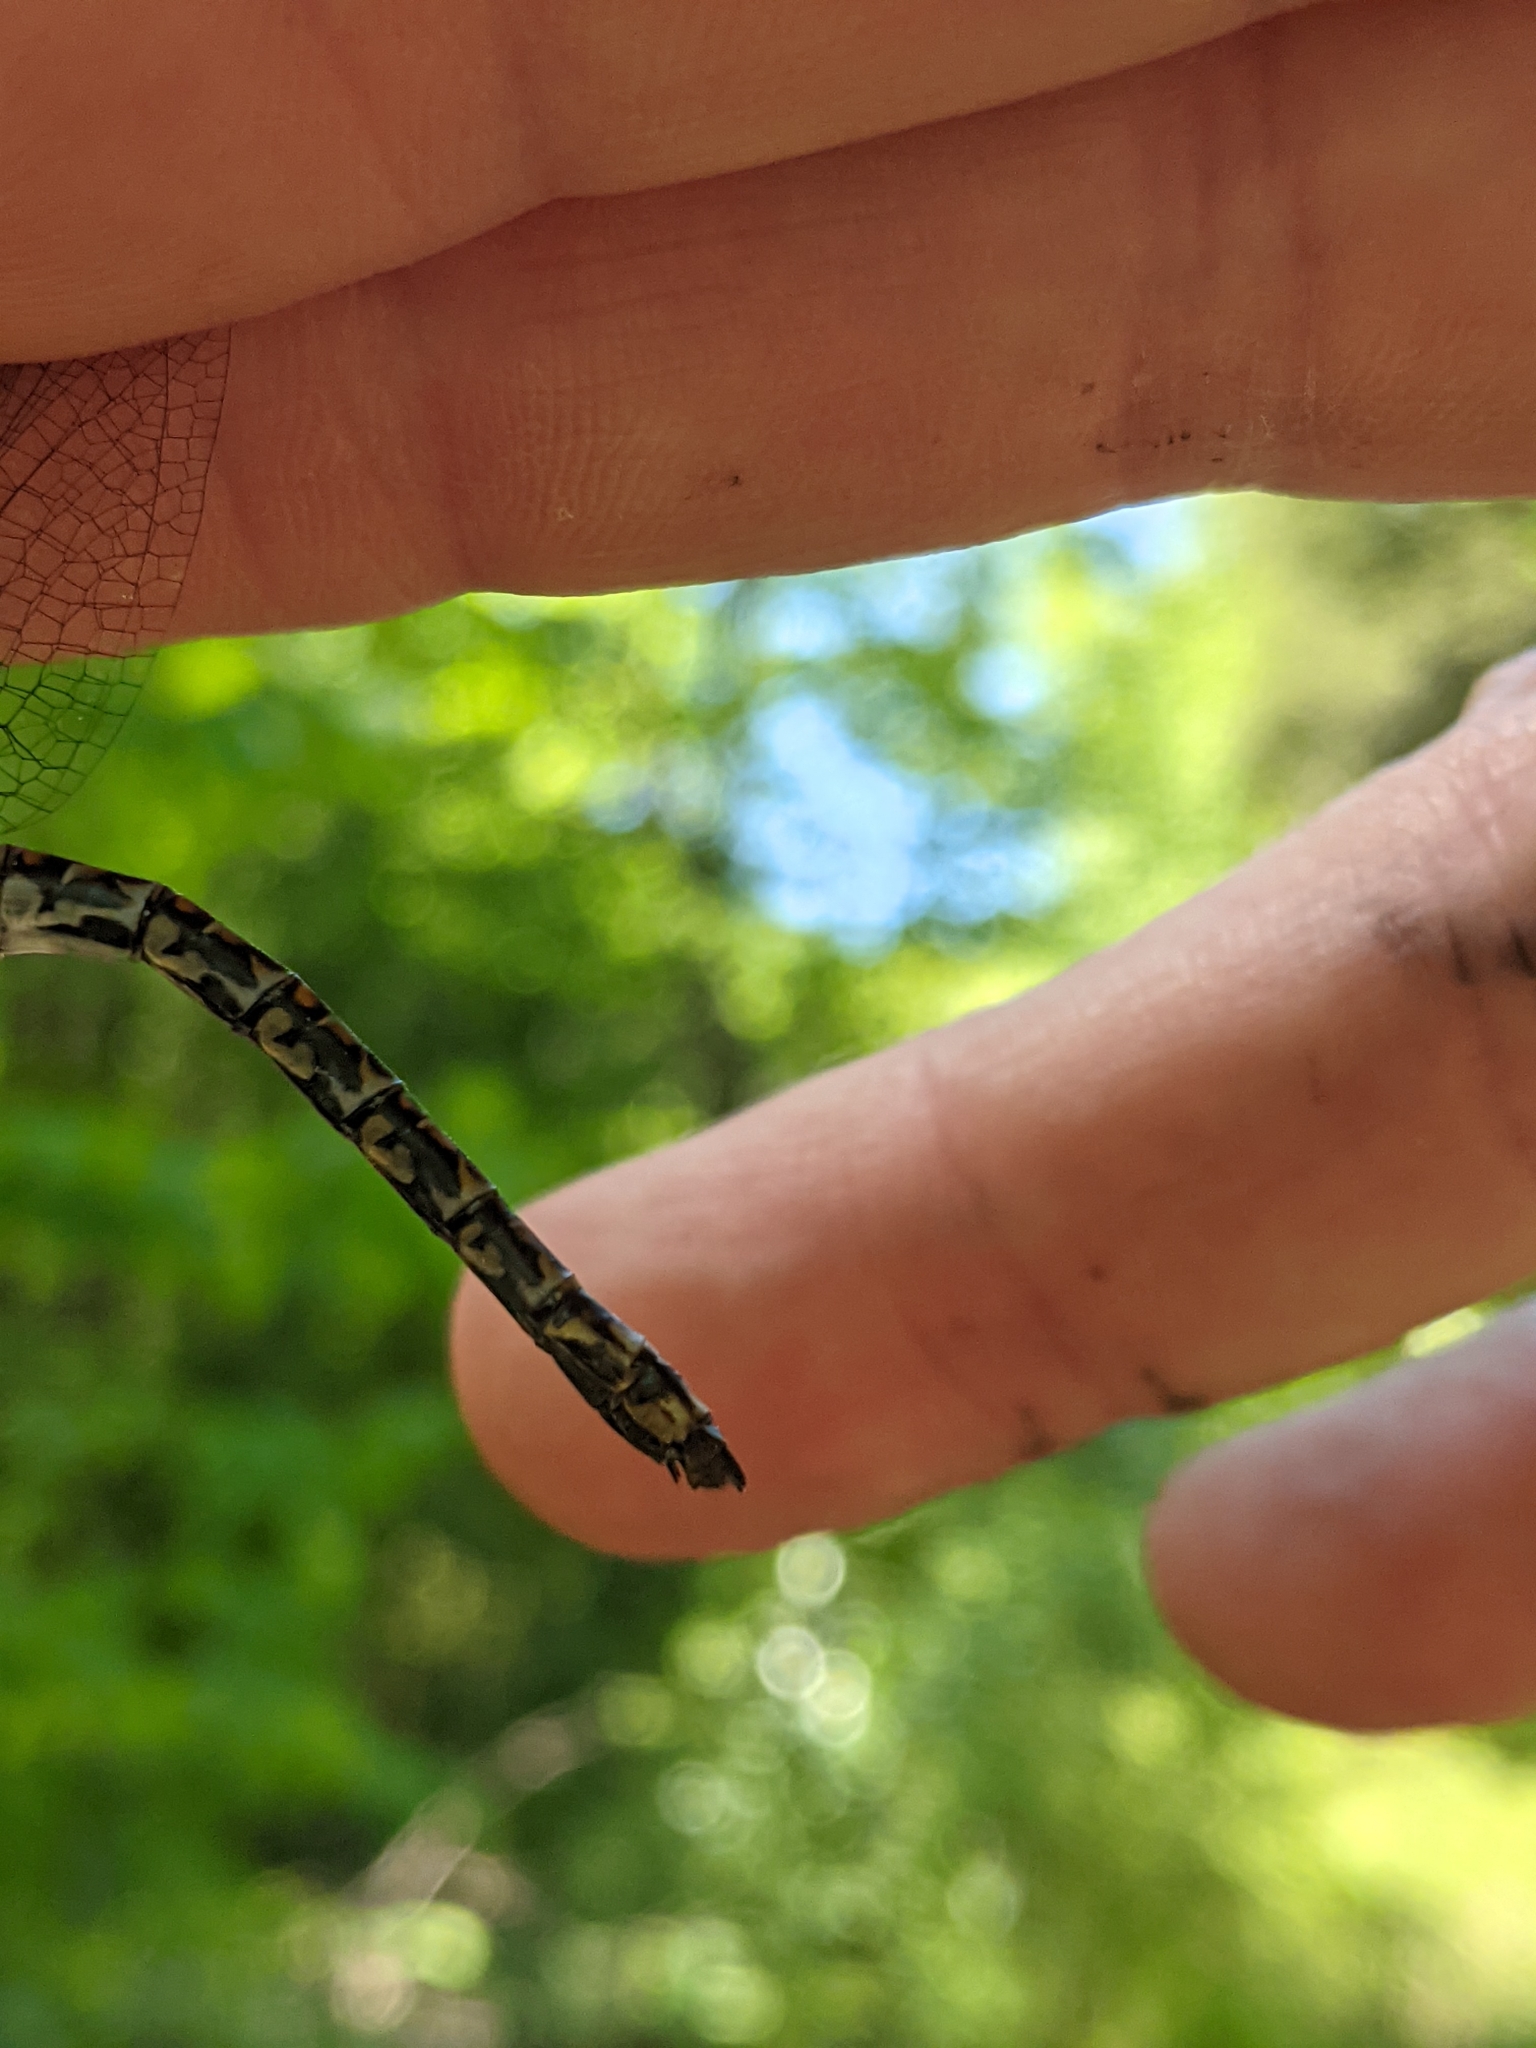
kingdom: Animalia
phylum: Arthropoda
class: Insecta
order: Odonata
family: Aeshnidae
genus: Gomphaeschna
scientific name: Gomphaeschna furcillata
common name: Harlequin darner
